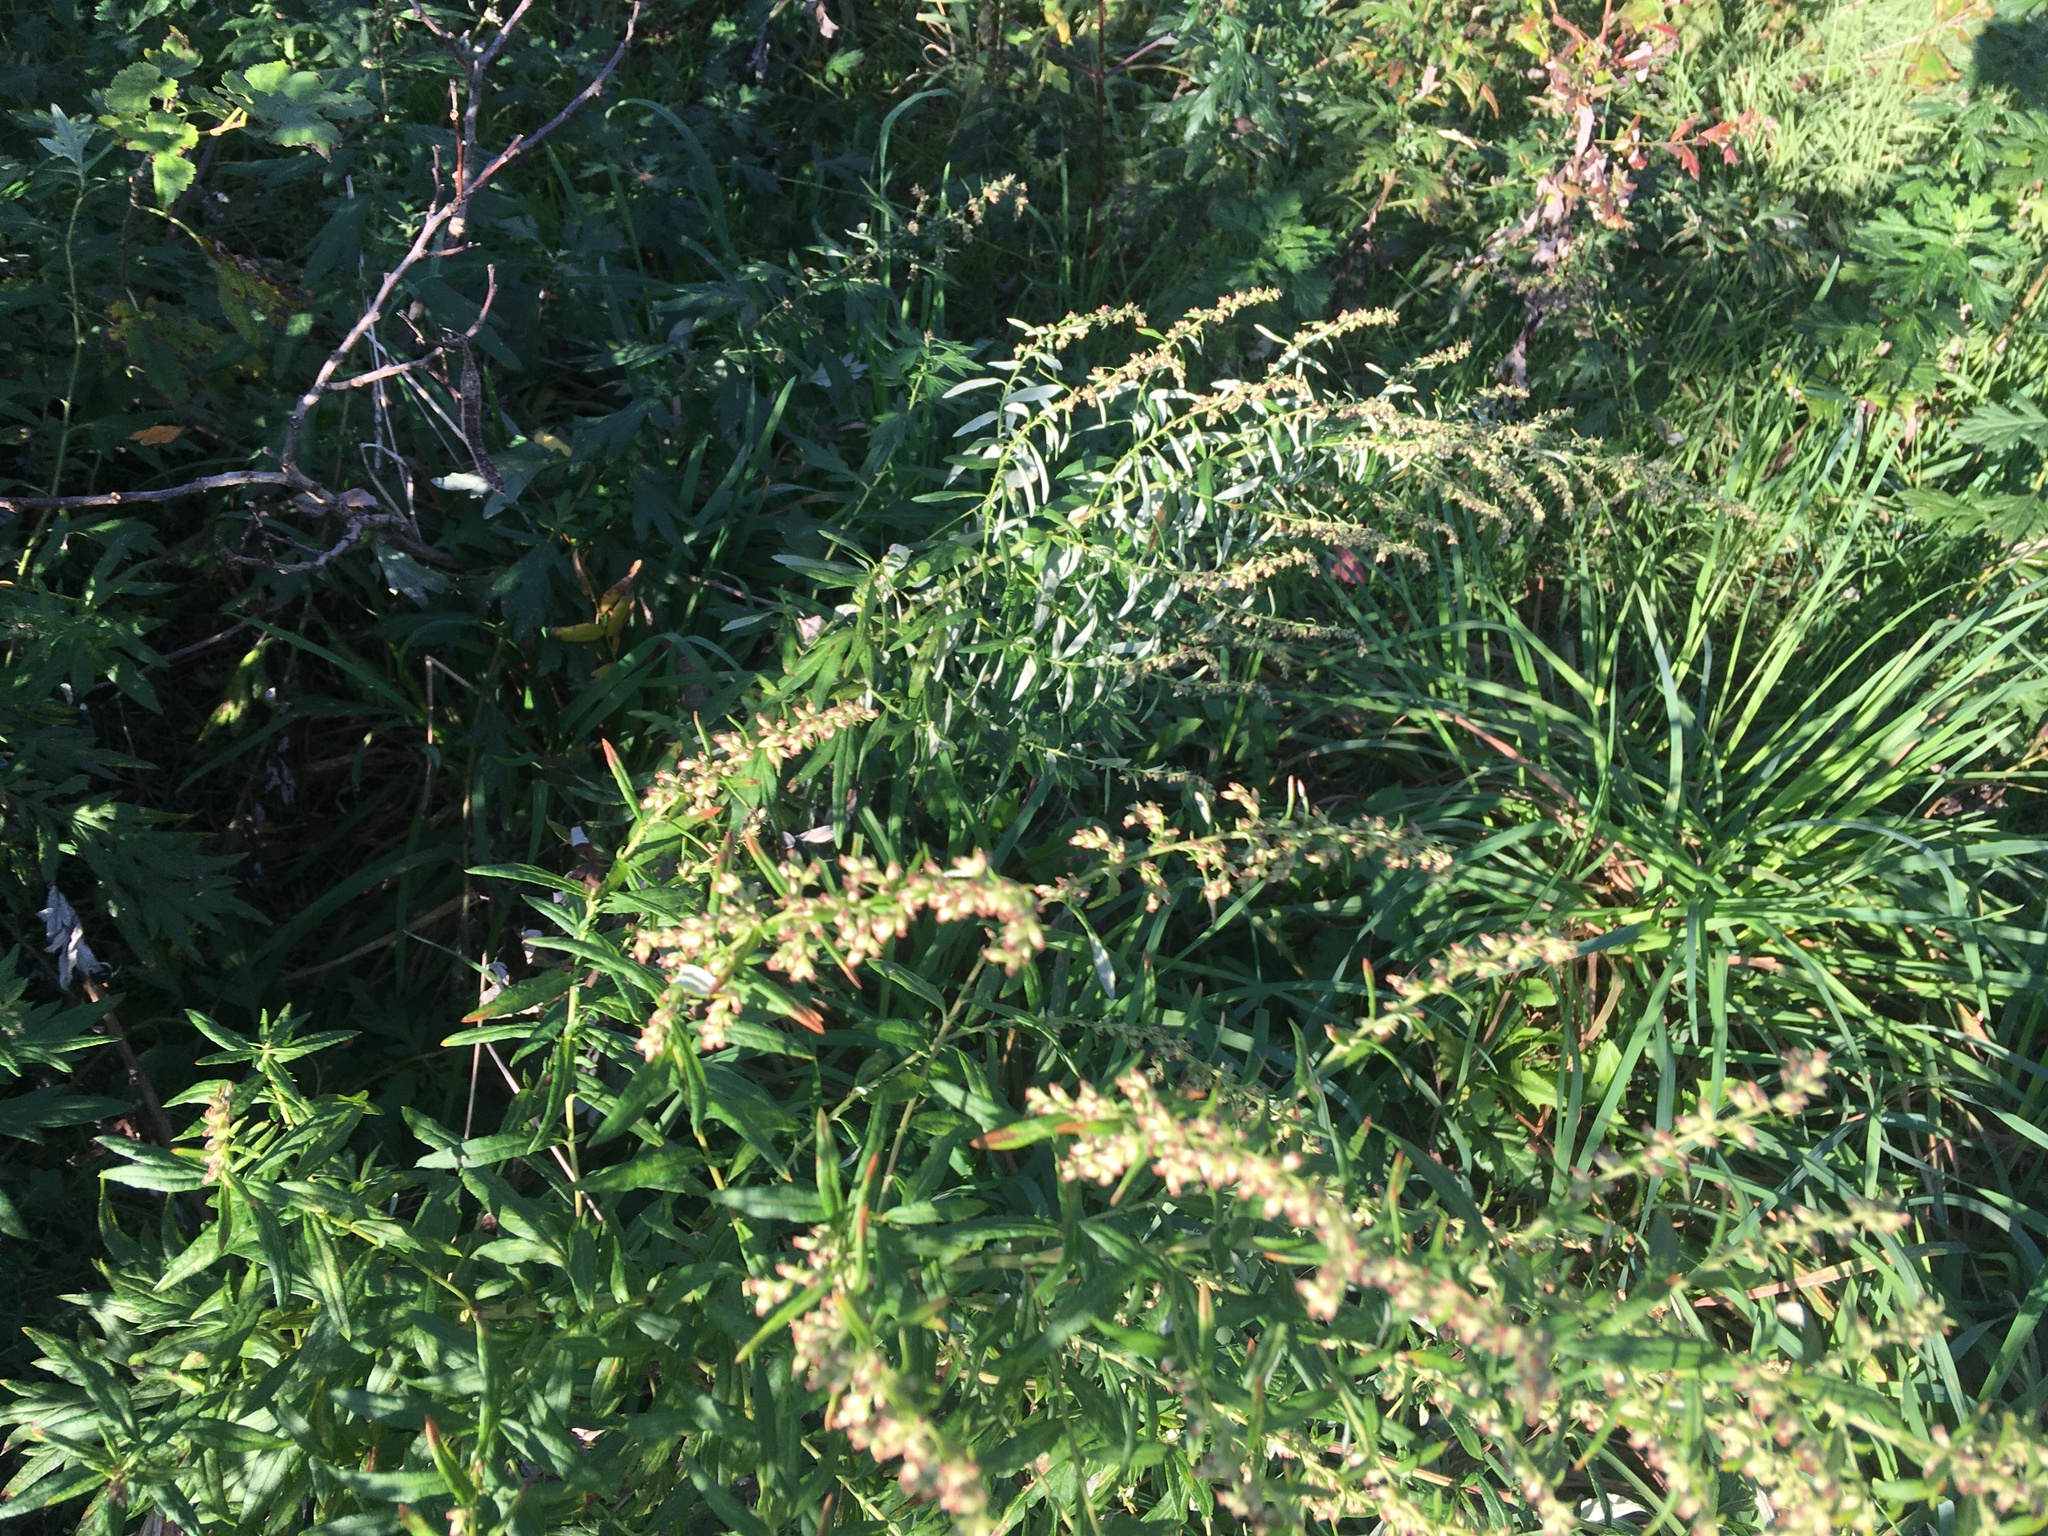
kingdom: Plantae
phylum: Tracheophyta
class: Magnoliopsida
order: Asterales
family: Asteraceae
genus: Artemisia
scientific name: Artemisia vulgaris
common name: Mugwort
